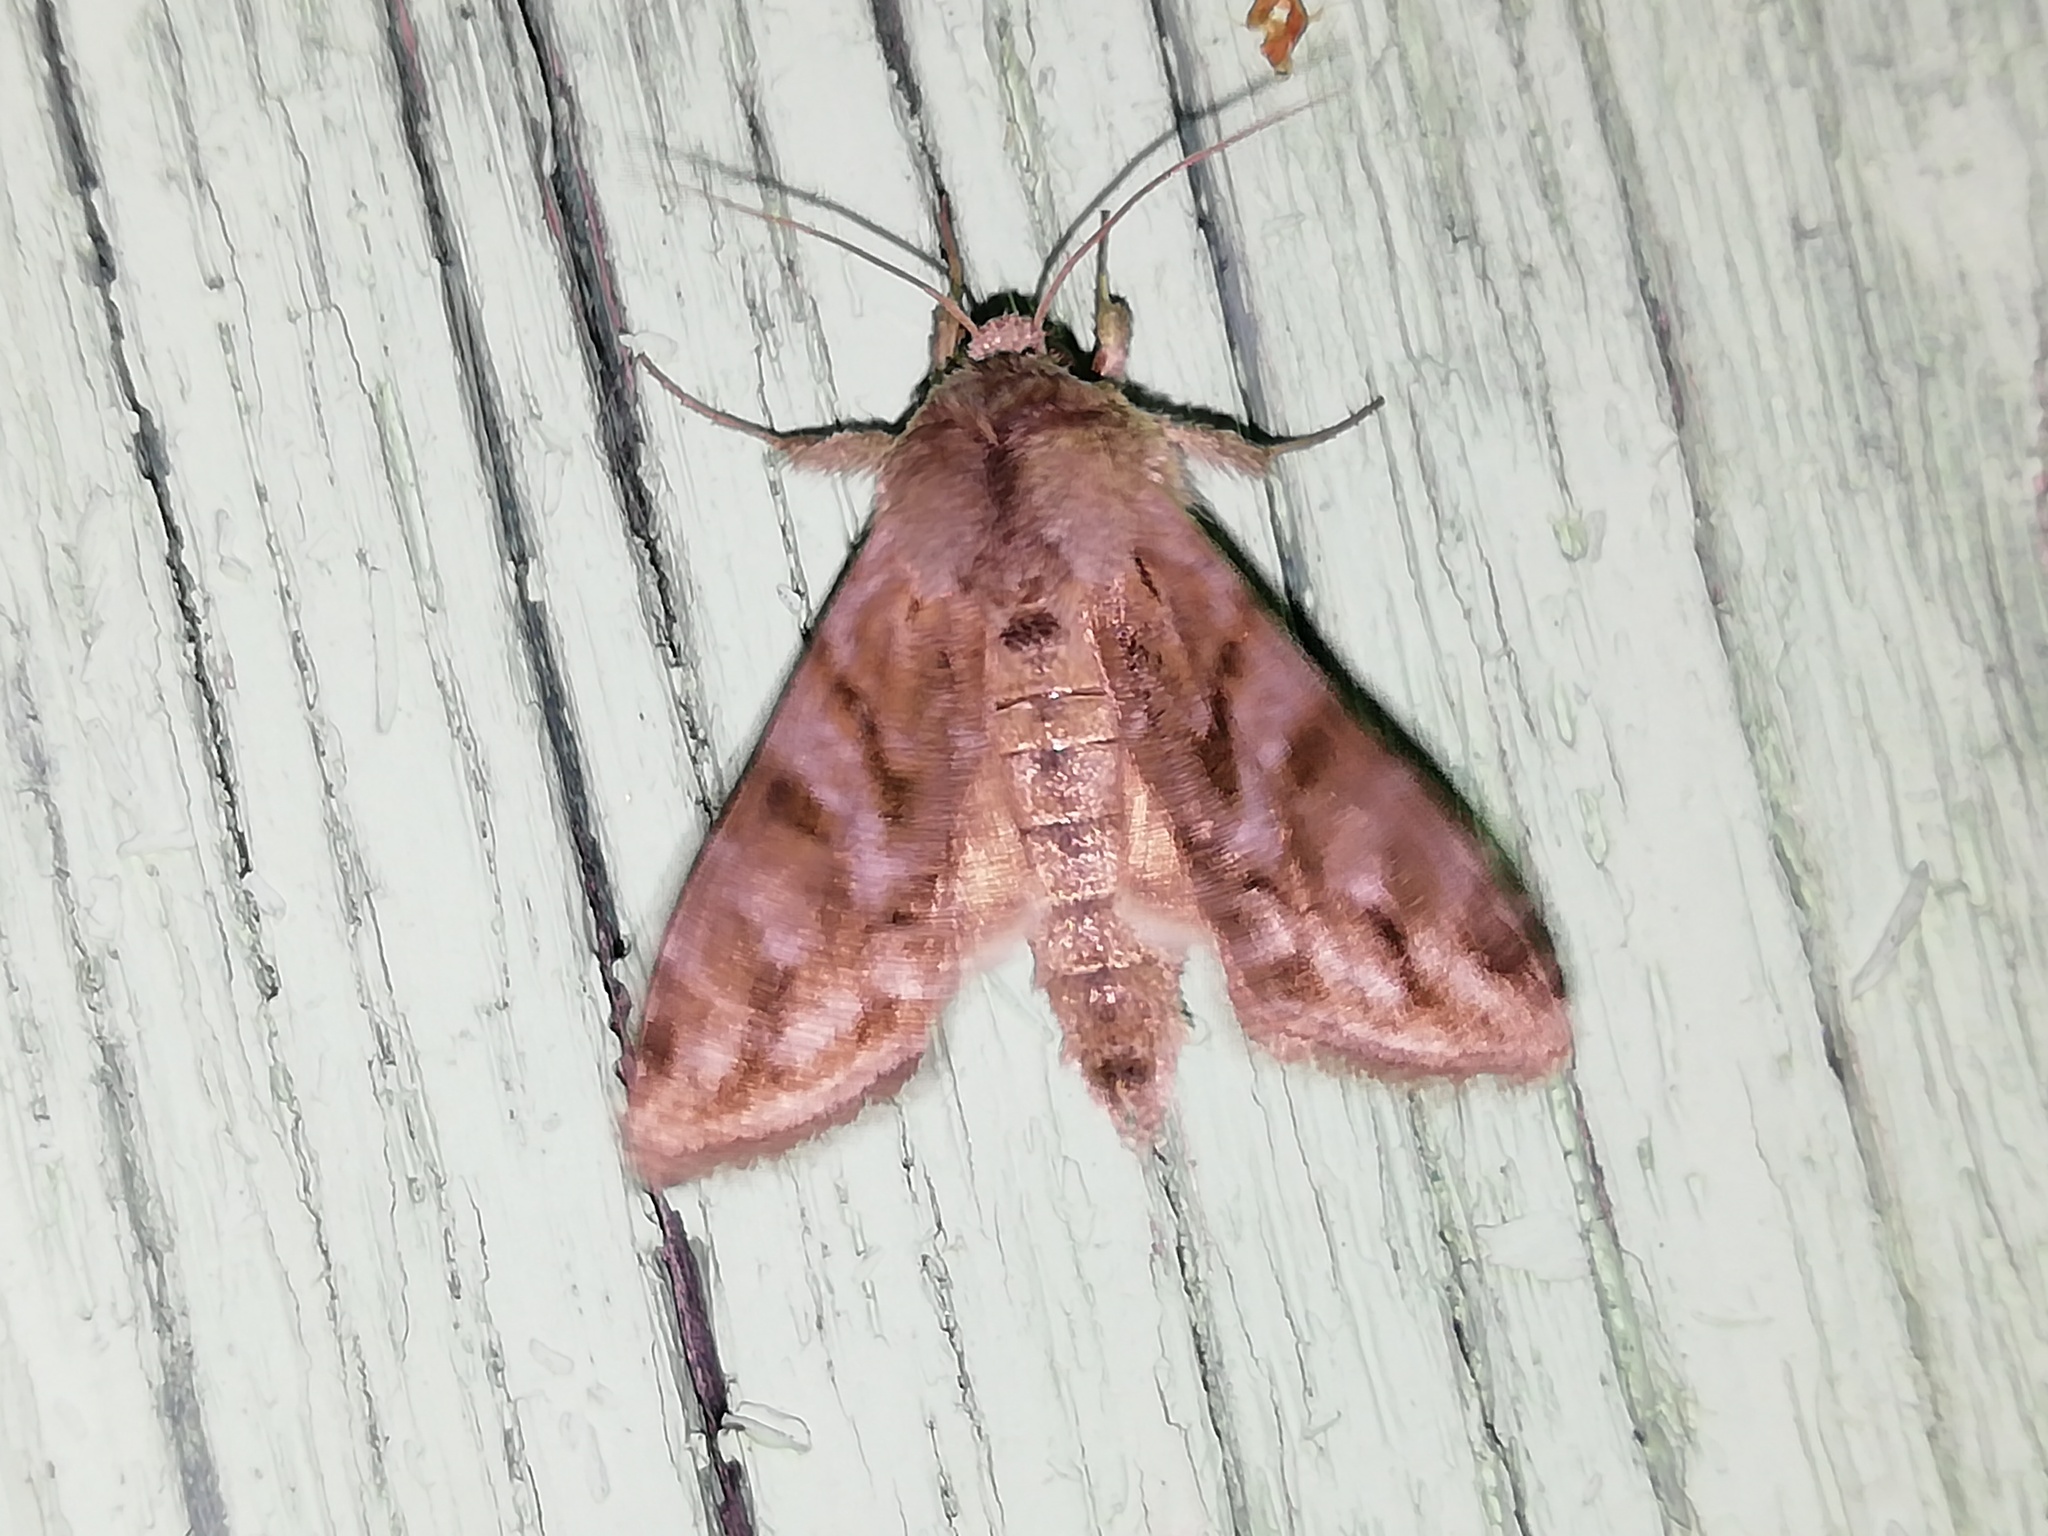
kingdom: Animalia
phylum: Arthropoda
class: Insecta
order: Lepidoptera
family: Noctuidae
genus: Cucullia
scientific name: Cucullia fraudatrix
